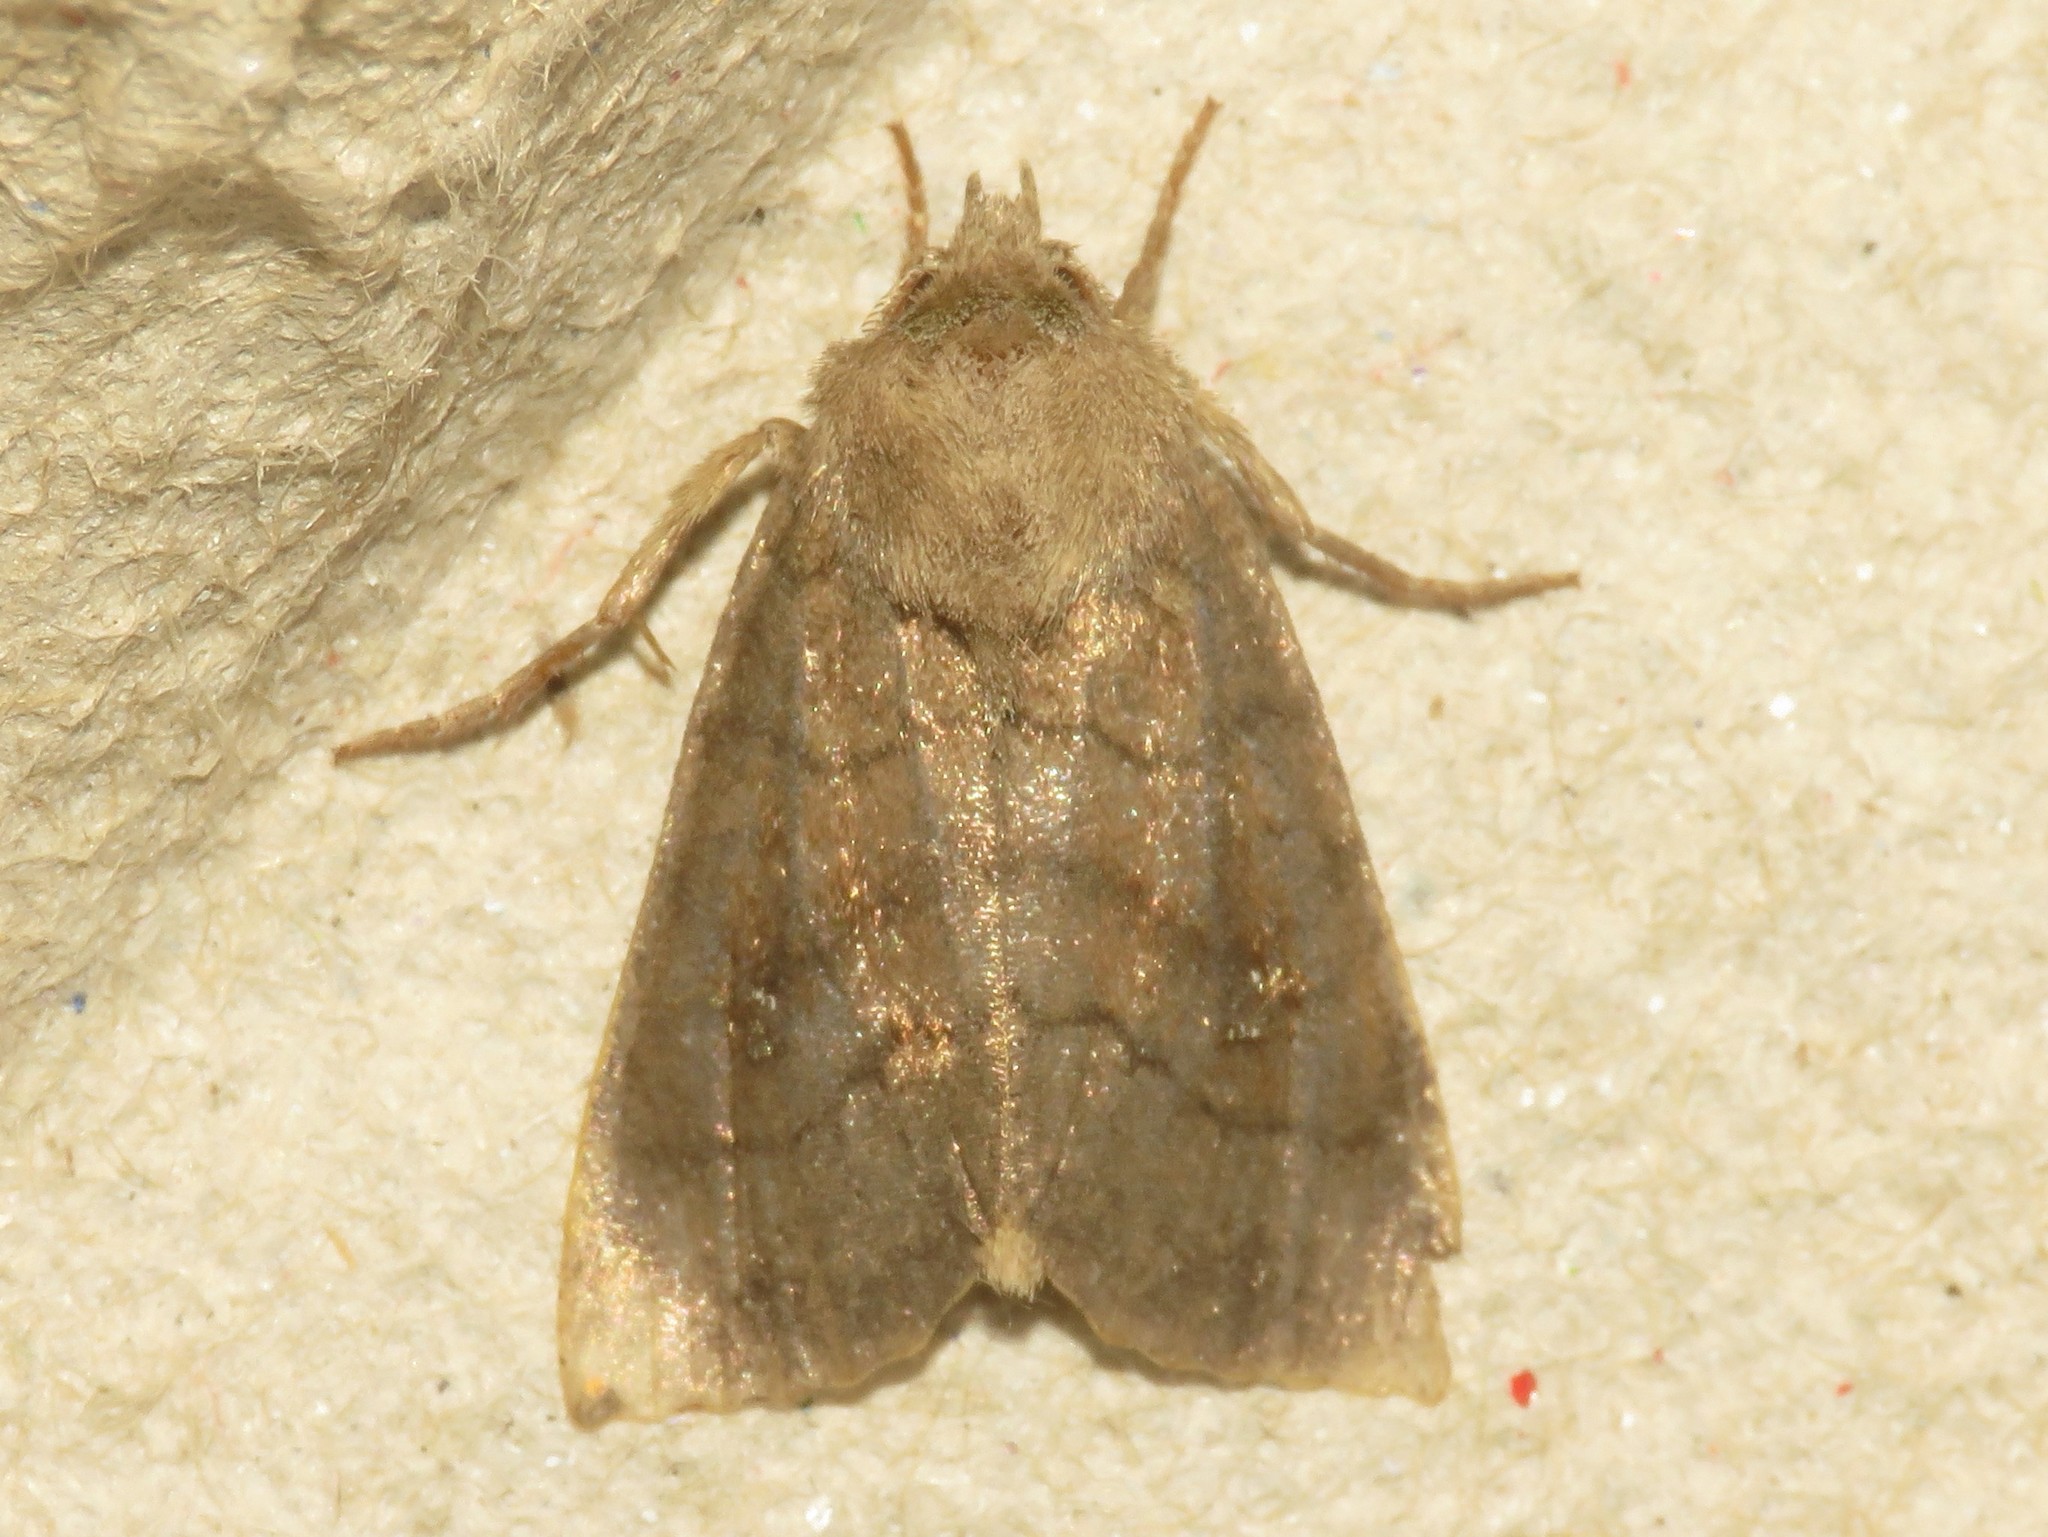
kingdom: Animalia
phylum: Arthropoda
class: Insecta
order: Lepidoptera
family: Noctuidae
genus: Tricholita
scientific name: Tricholita signata
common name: Signate quaker
